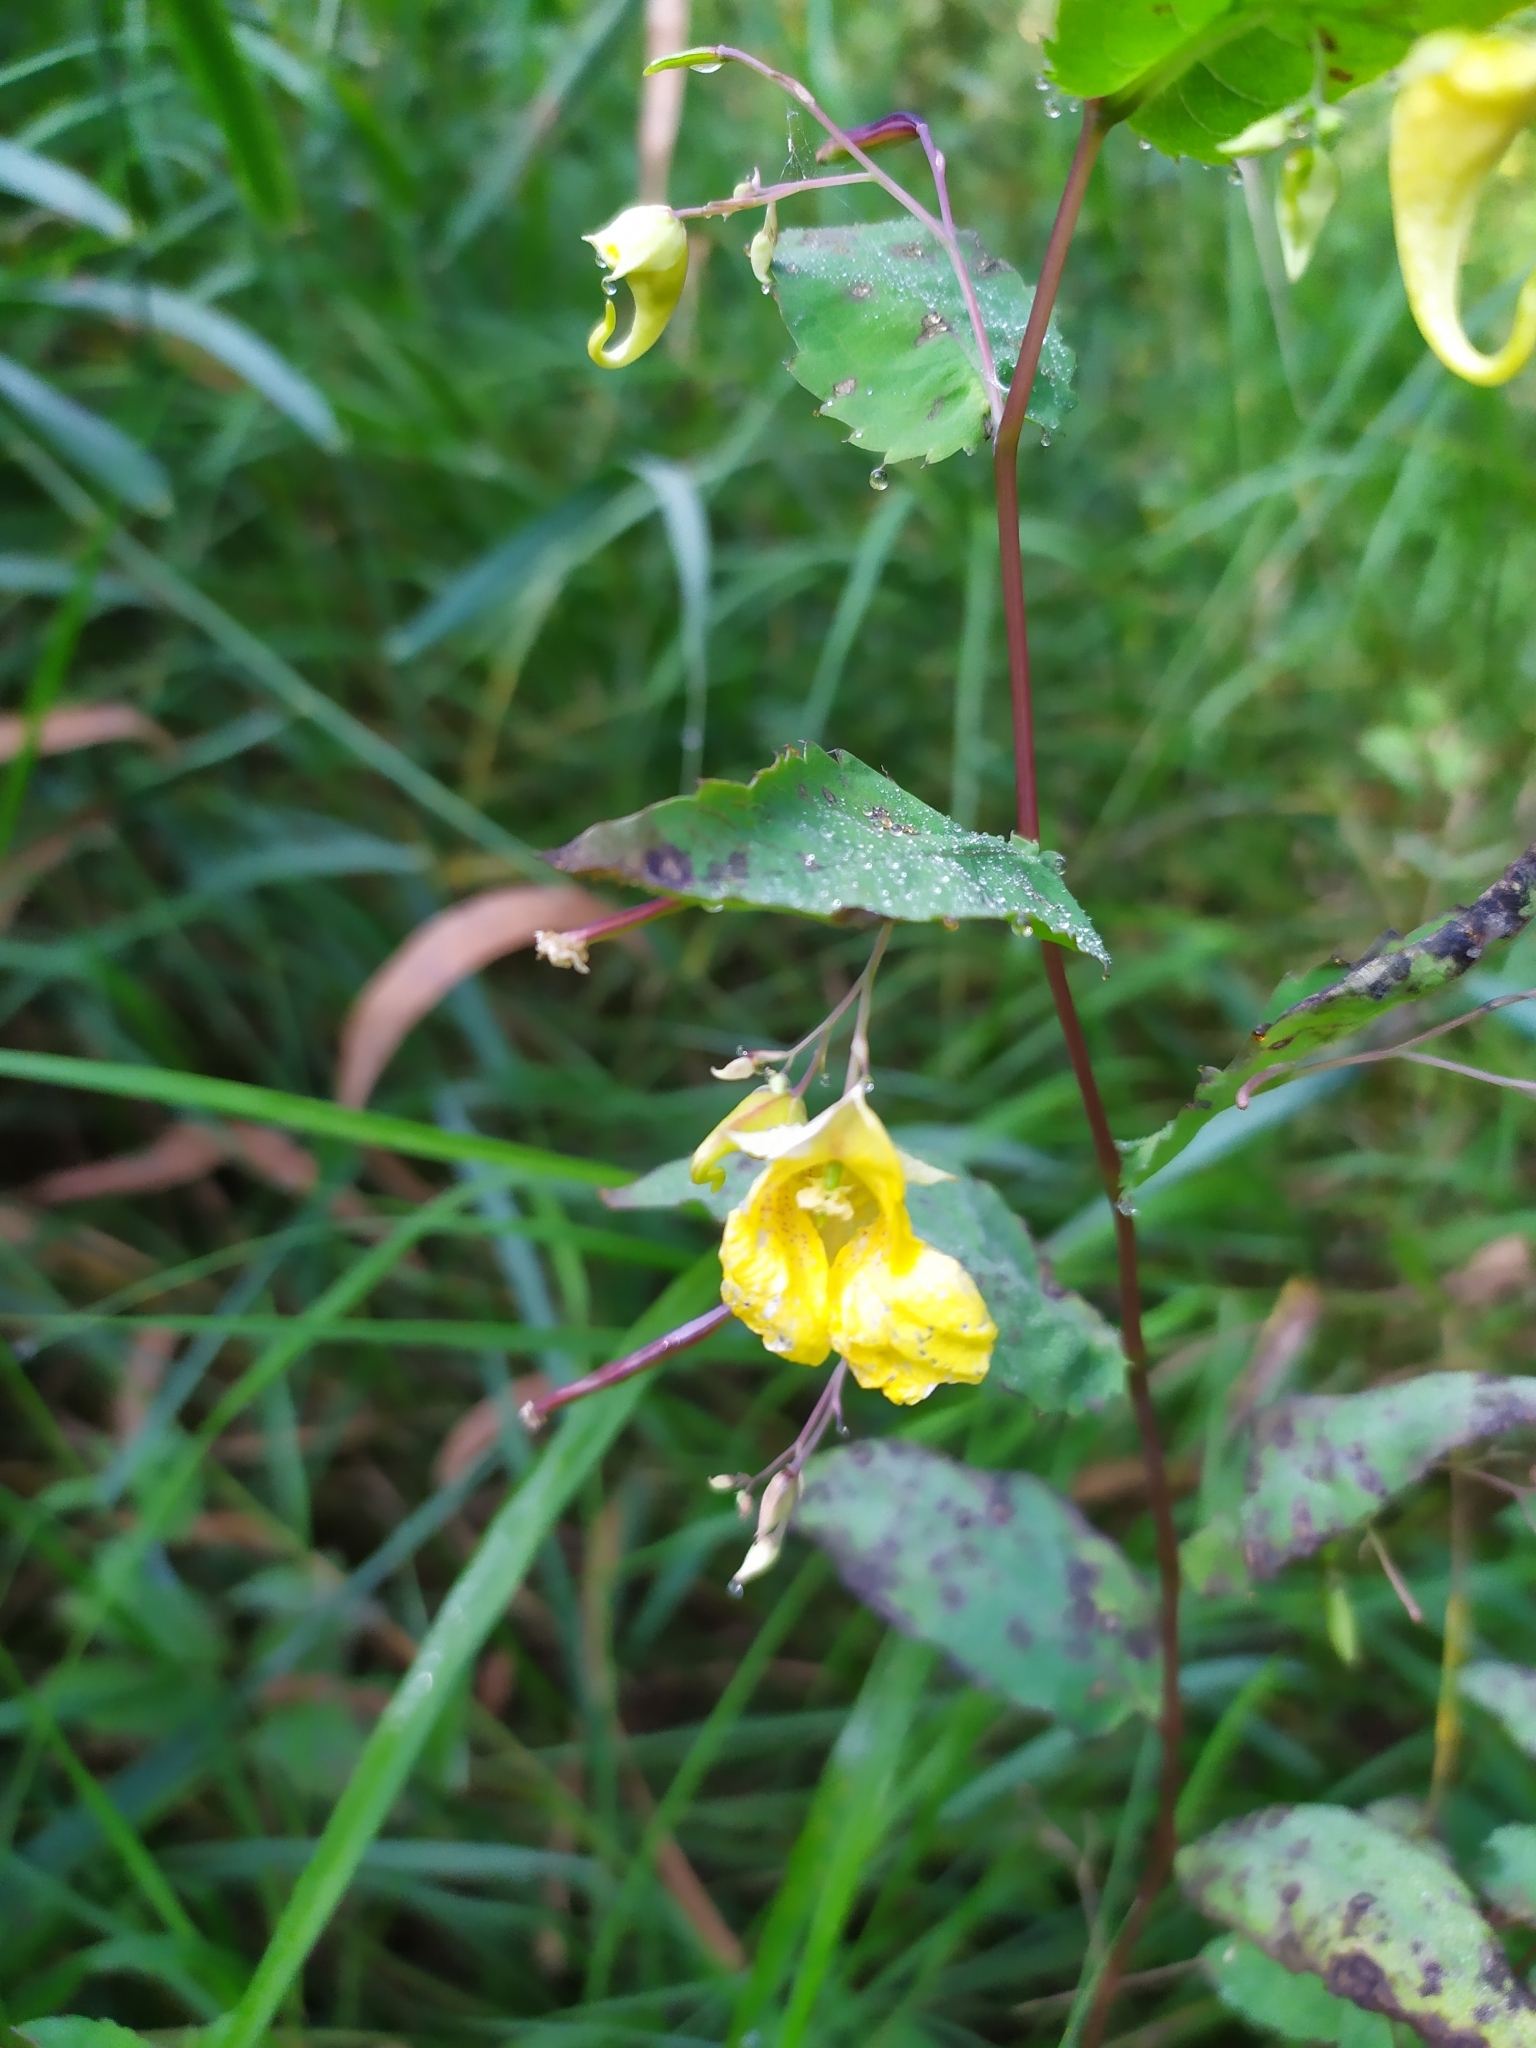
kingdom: Plantae
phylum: Tracheophyta
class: Magnoliopsida
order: Ericales
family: Balsaminaceae
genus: Impatiens
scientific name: Impatiens noli-tangere
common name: Touch-me-not balsam
